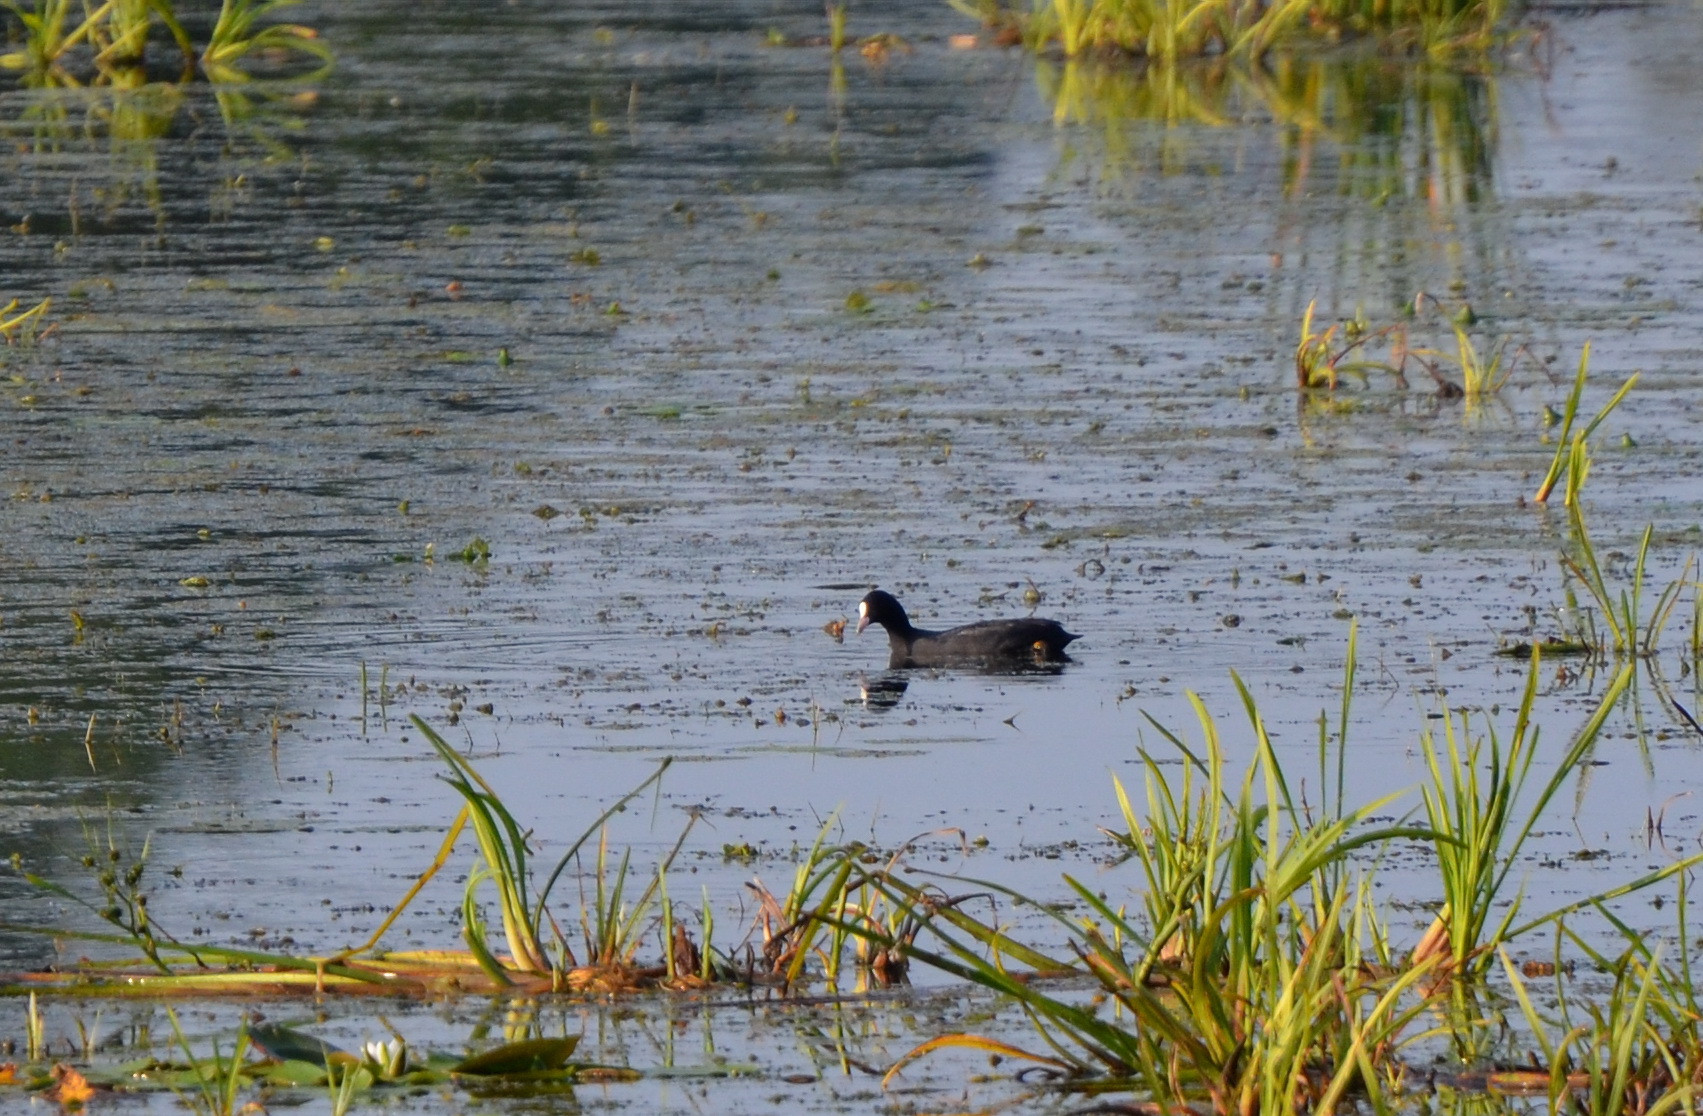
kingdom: Animalia
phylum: Chordata
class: Aves
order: Gruiformes
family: Rallidae
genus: Fulica
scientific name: Fulica atra
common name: Eurasian coot
